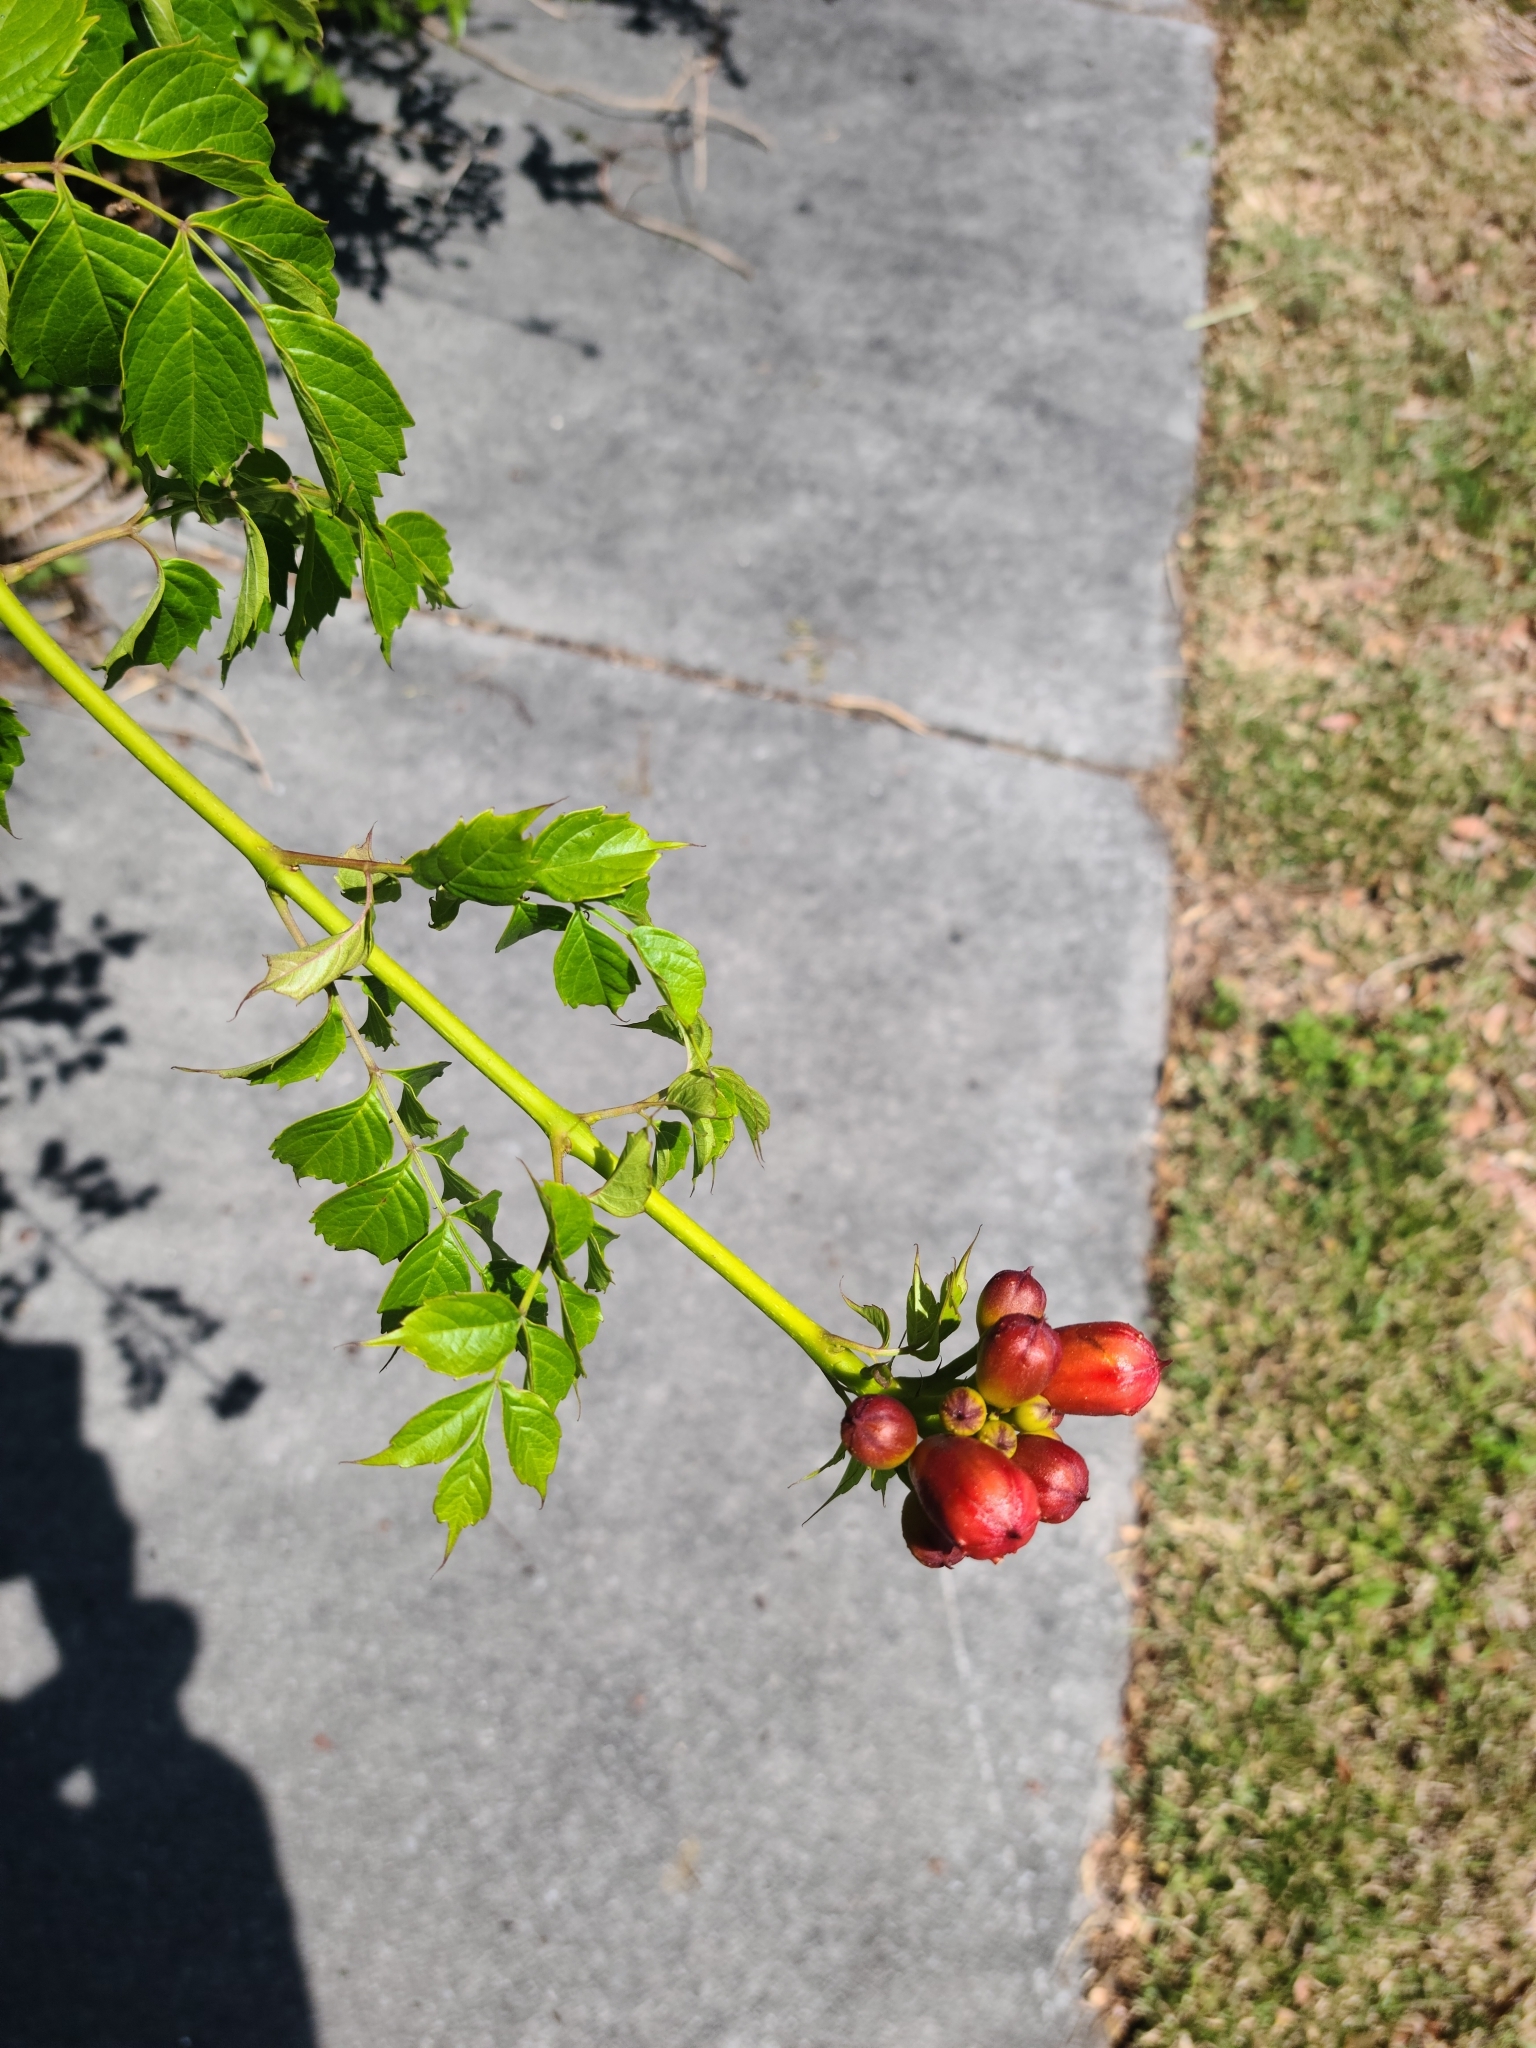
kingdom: Plantae
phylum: Tracheophyta
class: Magnoliopsida
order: Lamiales
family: Bignoniaceae
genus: Campsis
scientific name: Campsis radicans
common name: Trumpet-creeper
